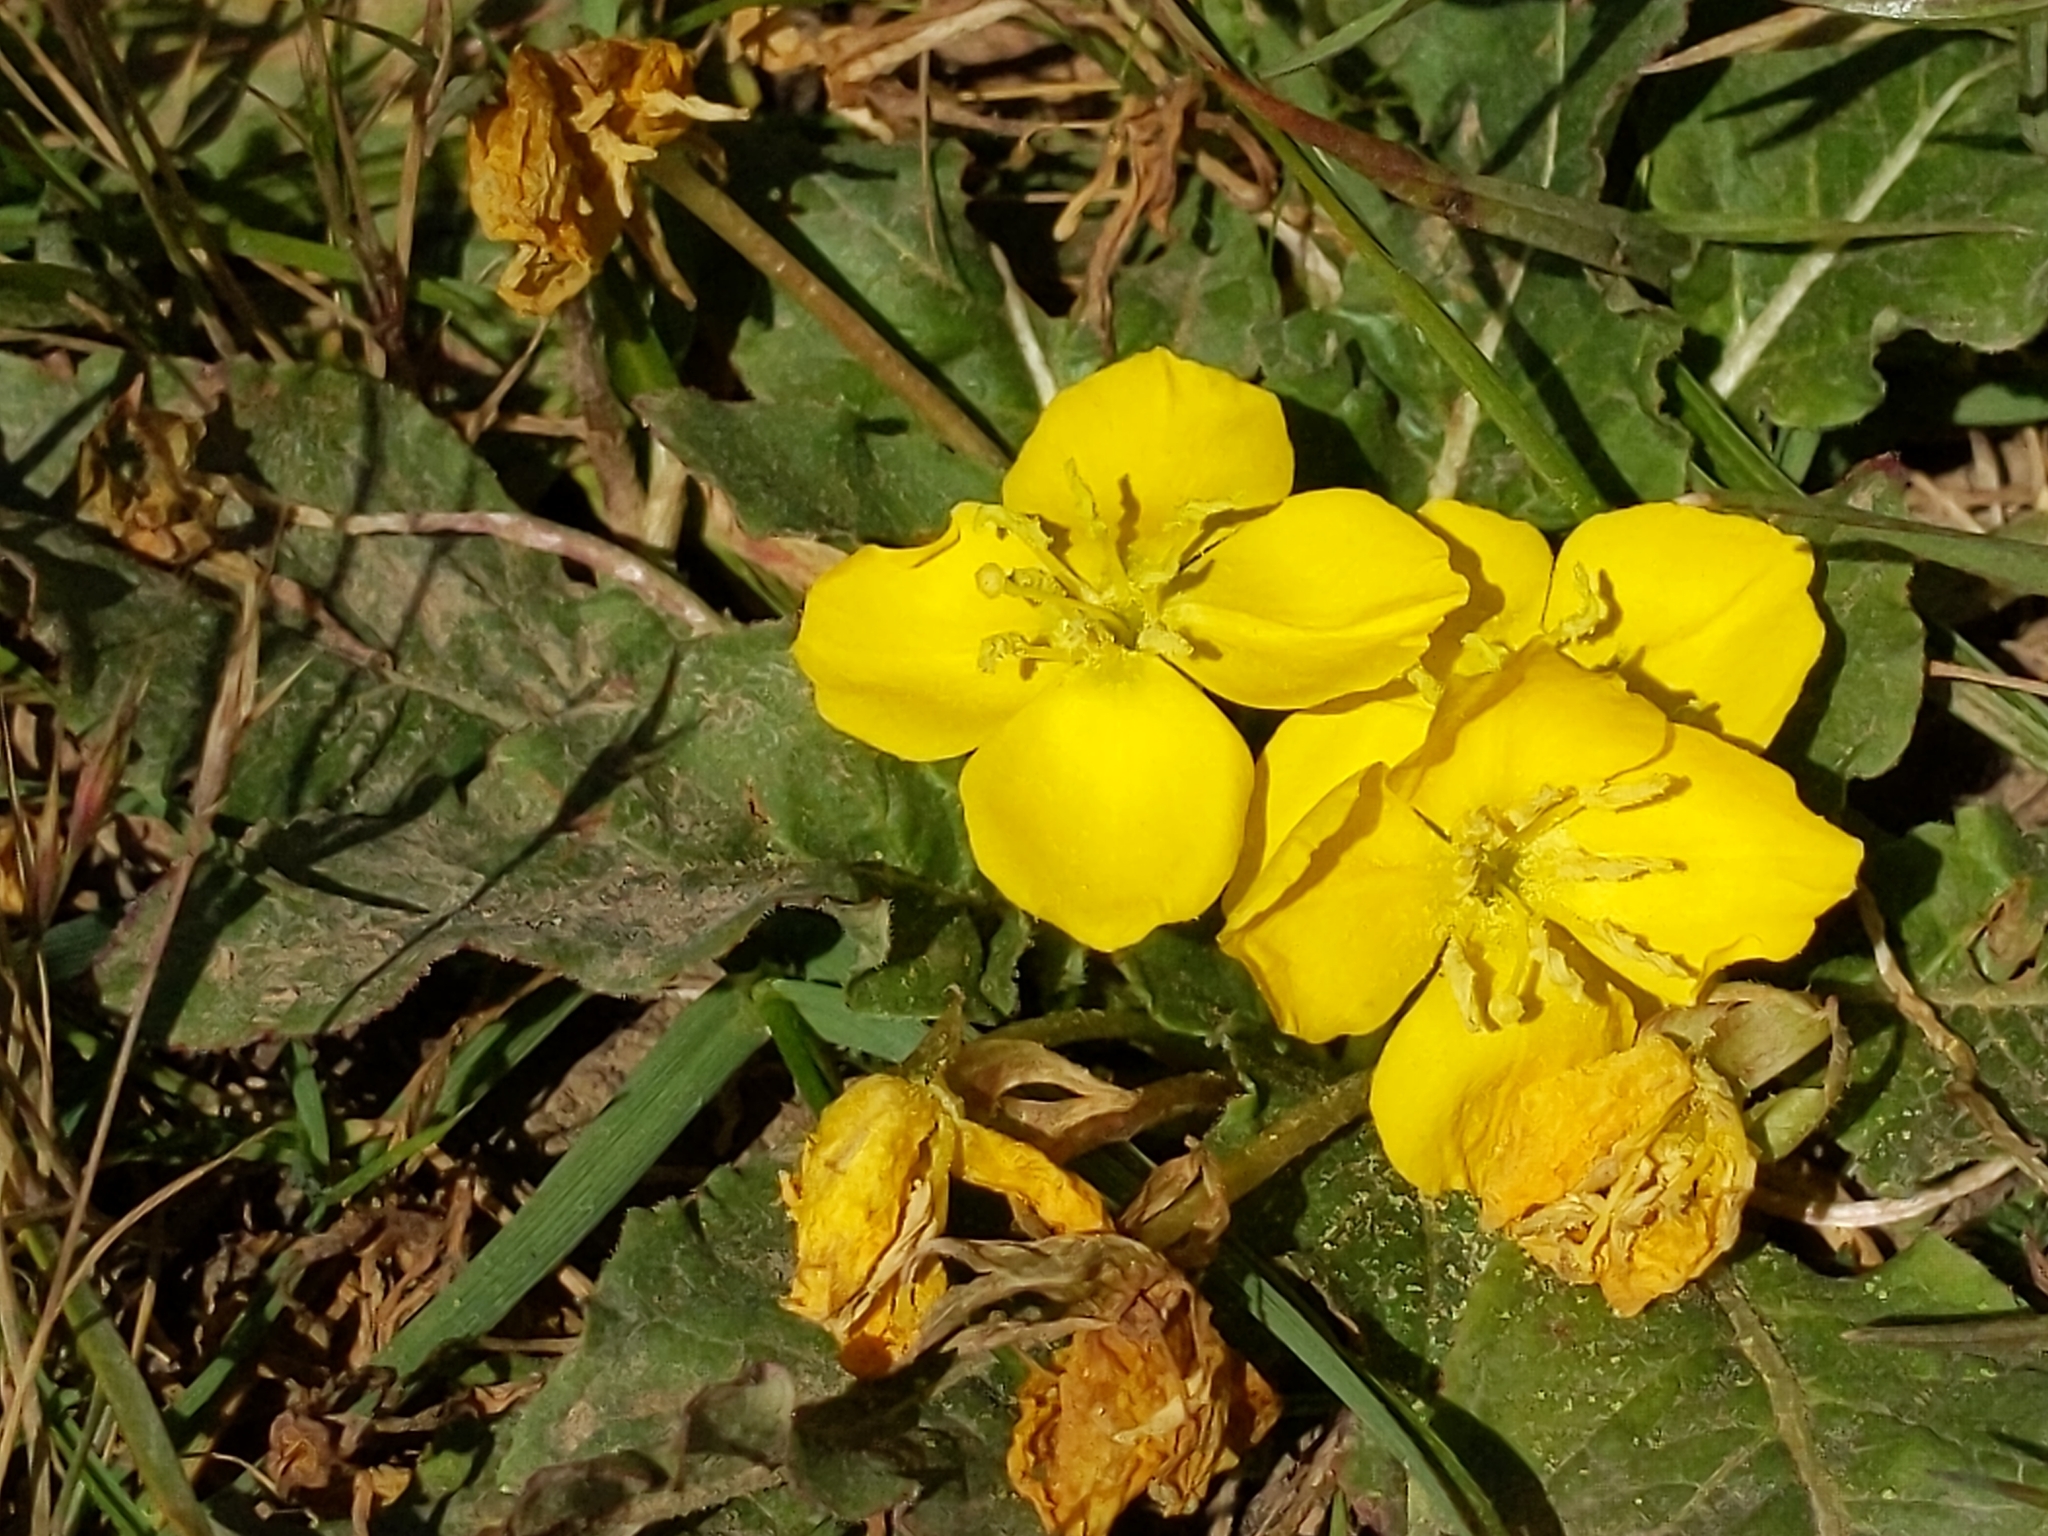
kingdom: Plantae
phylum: Tracheophyta
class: Magnoliopsida
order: Myrtales
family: Onagraceae
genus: Taraxia
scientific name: Taraxia ovata
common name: Goldeneggs
